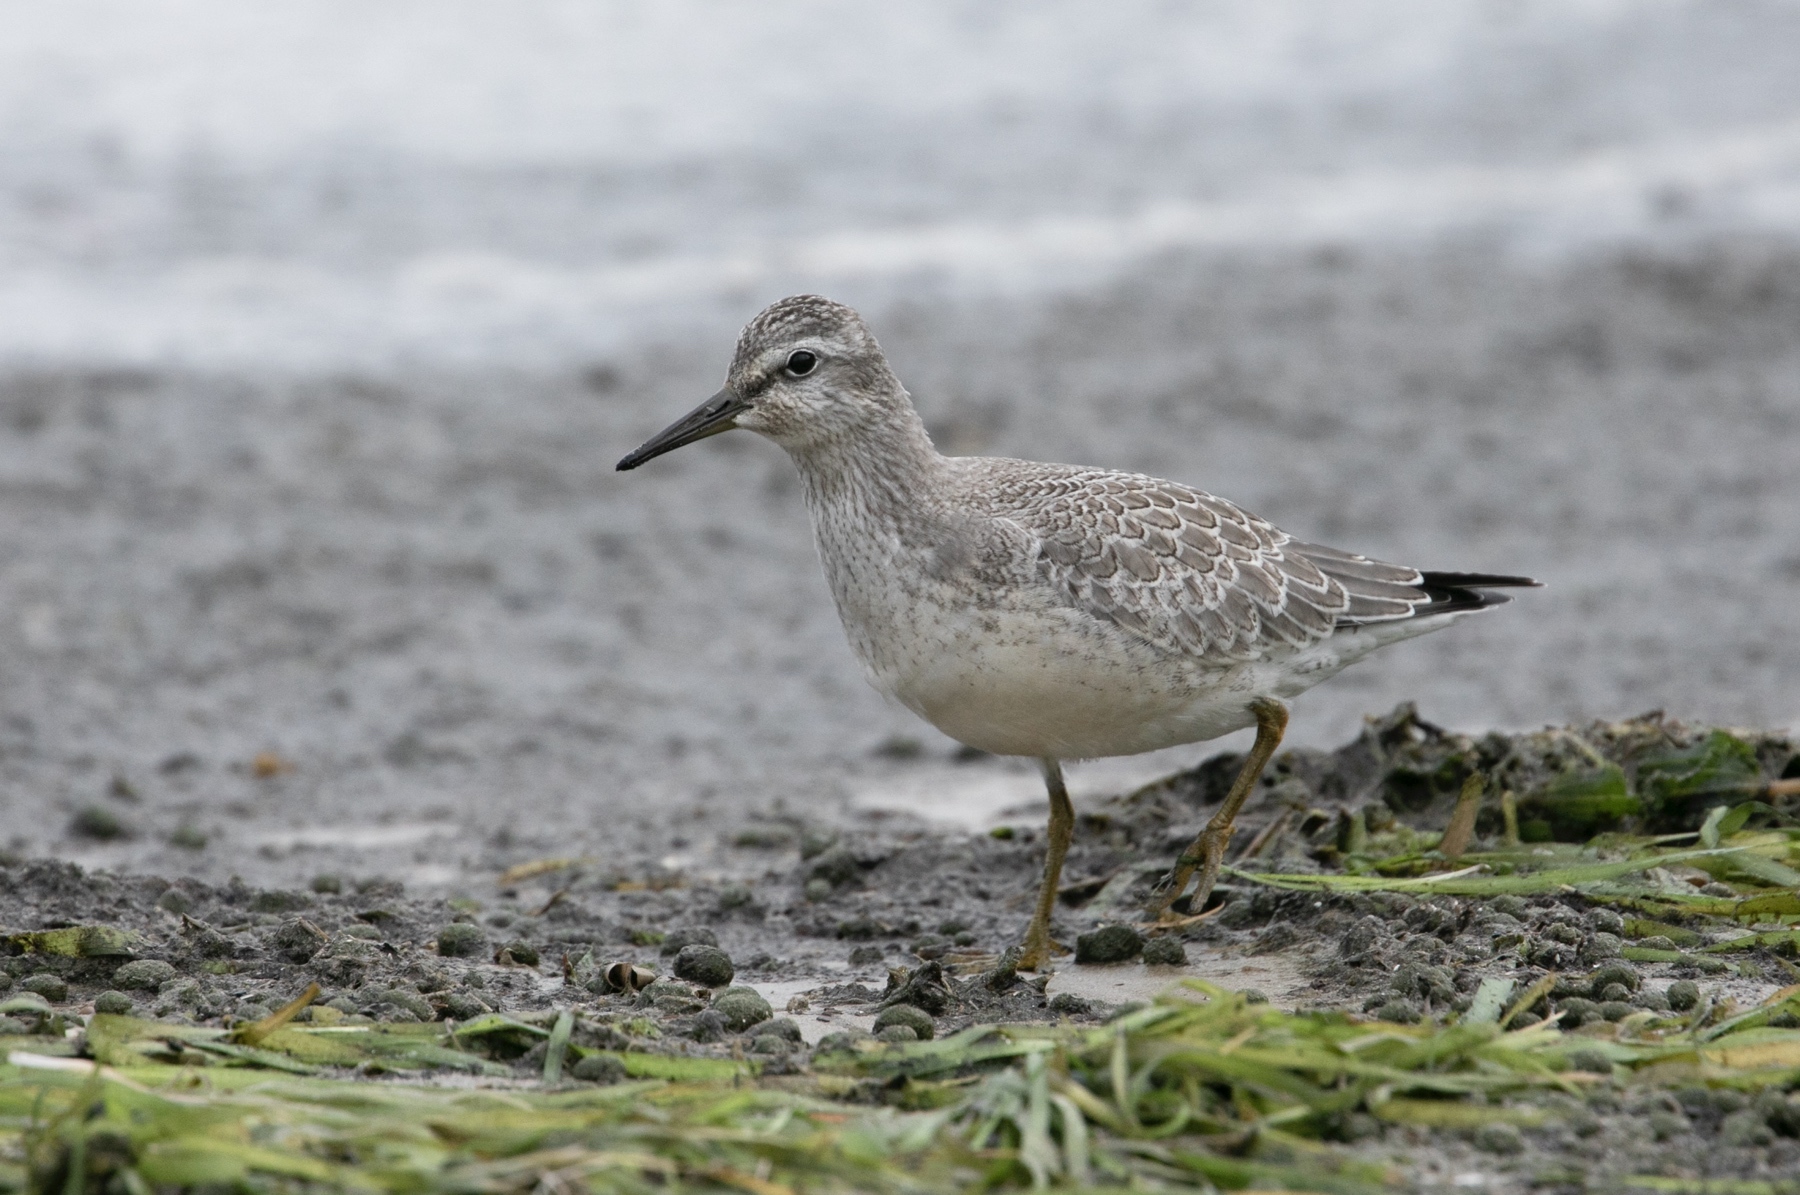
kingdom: Animalia
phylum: Chordata
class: Aves
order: Charadriiformes
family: Scolopacidae
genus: Calidris
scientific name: Calidris canutus
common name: Red knot
